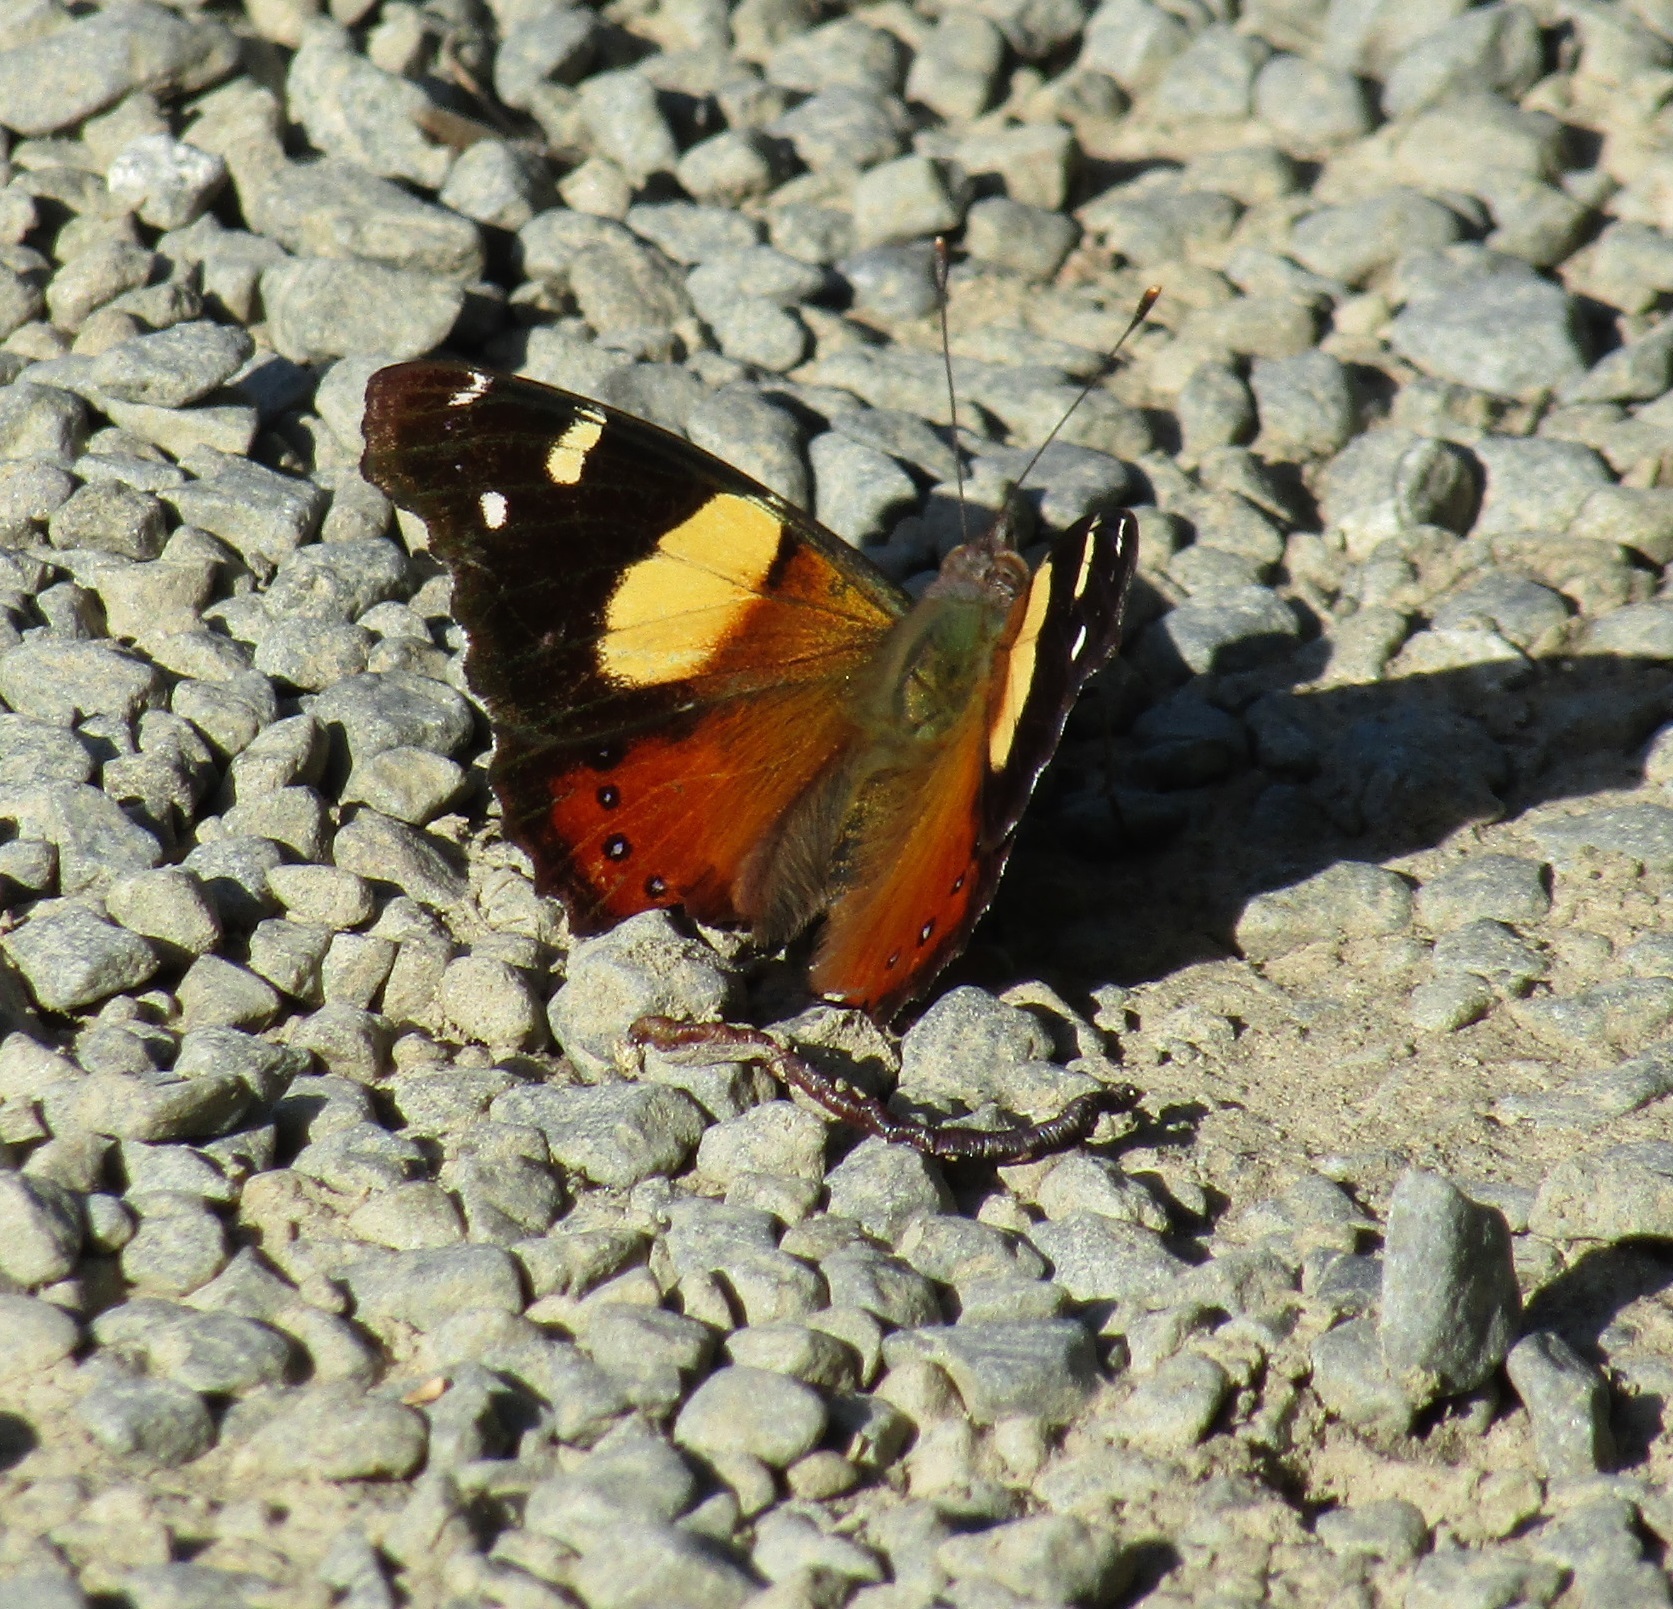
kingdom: Animalia
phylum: Arthropoda
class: Insecta
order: Lepidoptera
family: Nymphalidae
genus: Vanessa
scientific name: Vanessa itea
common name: Yellow admiral
